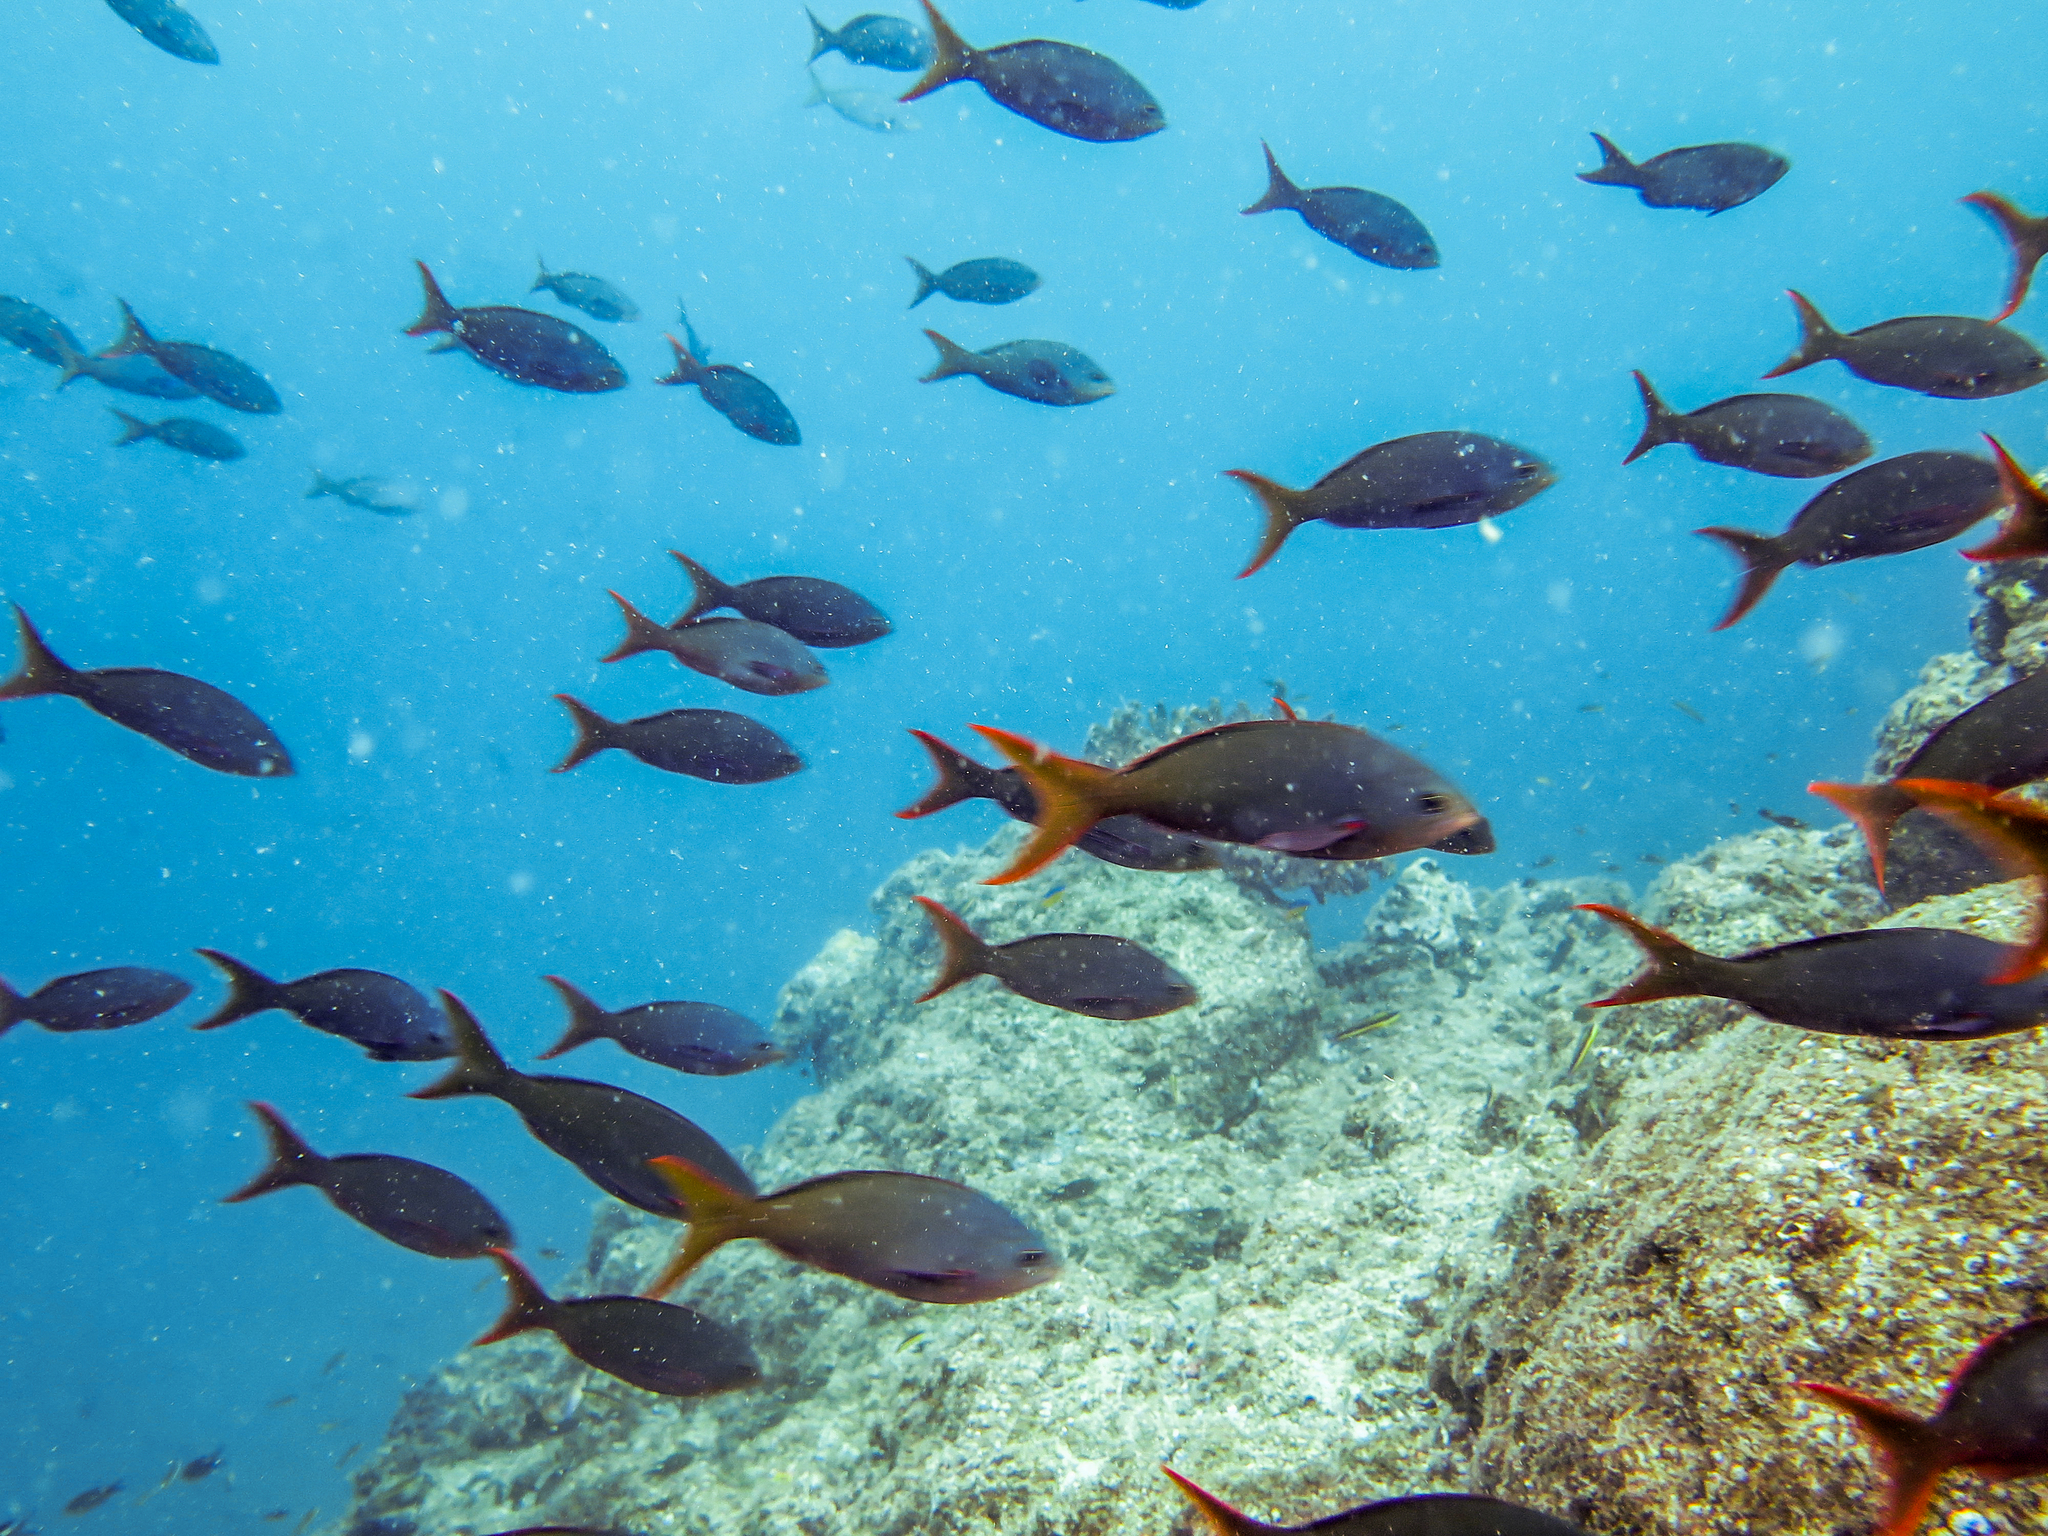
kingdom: Animalia
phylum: Chordata
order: Perciformes
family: Serranidae
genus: Paranthias
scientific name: Paranthias colonus
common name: Pacific creole-fish
